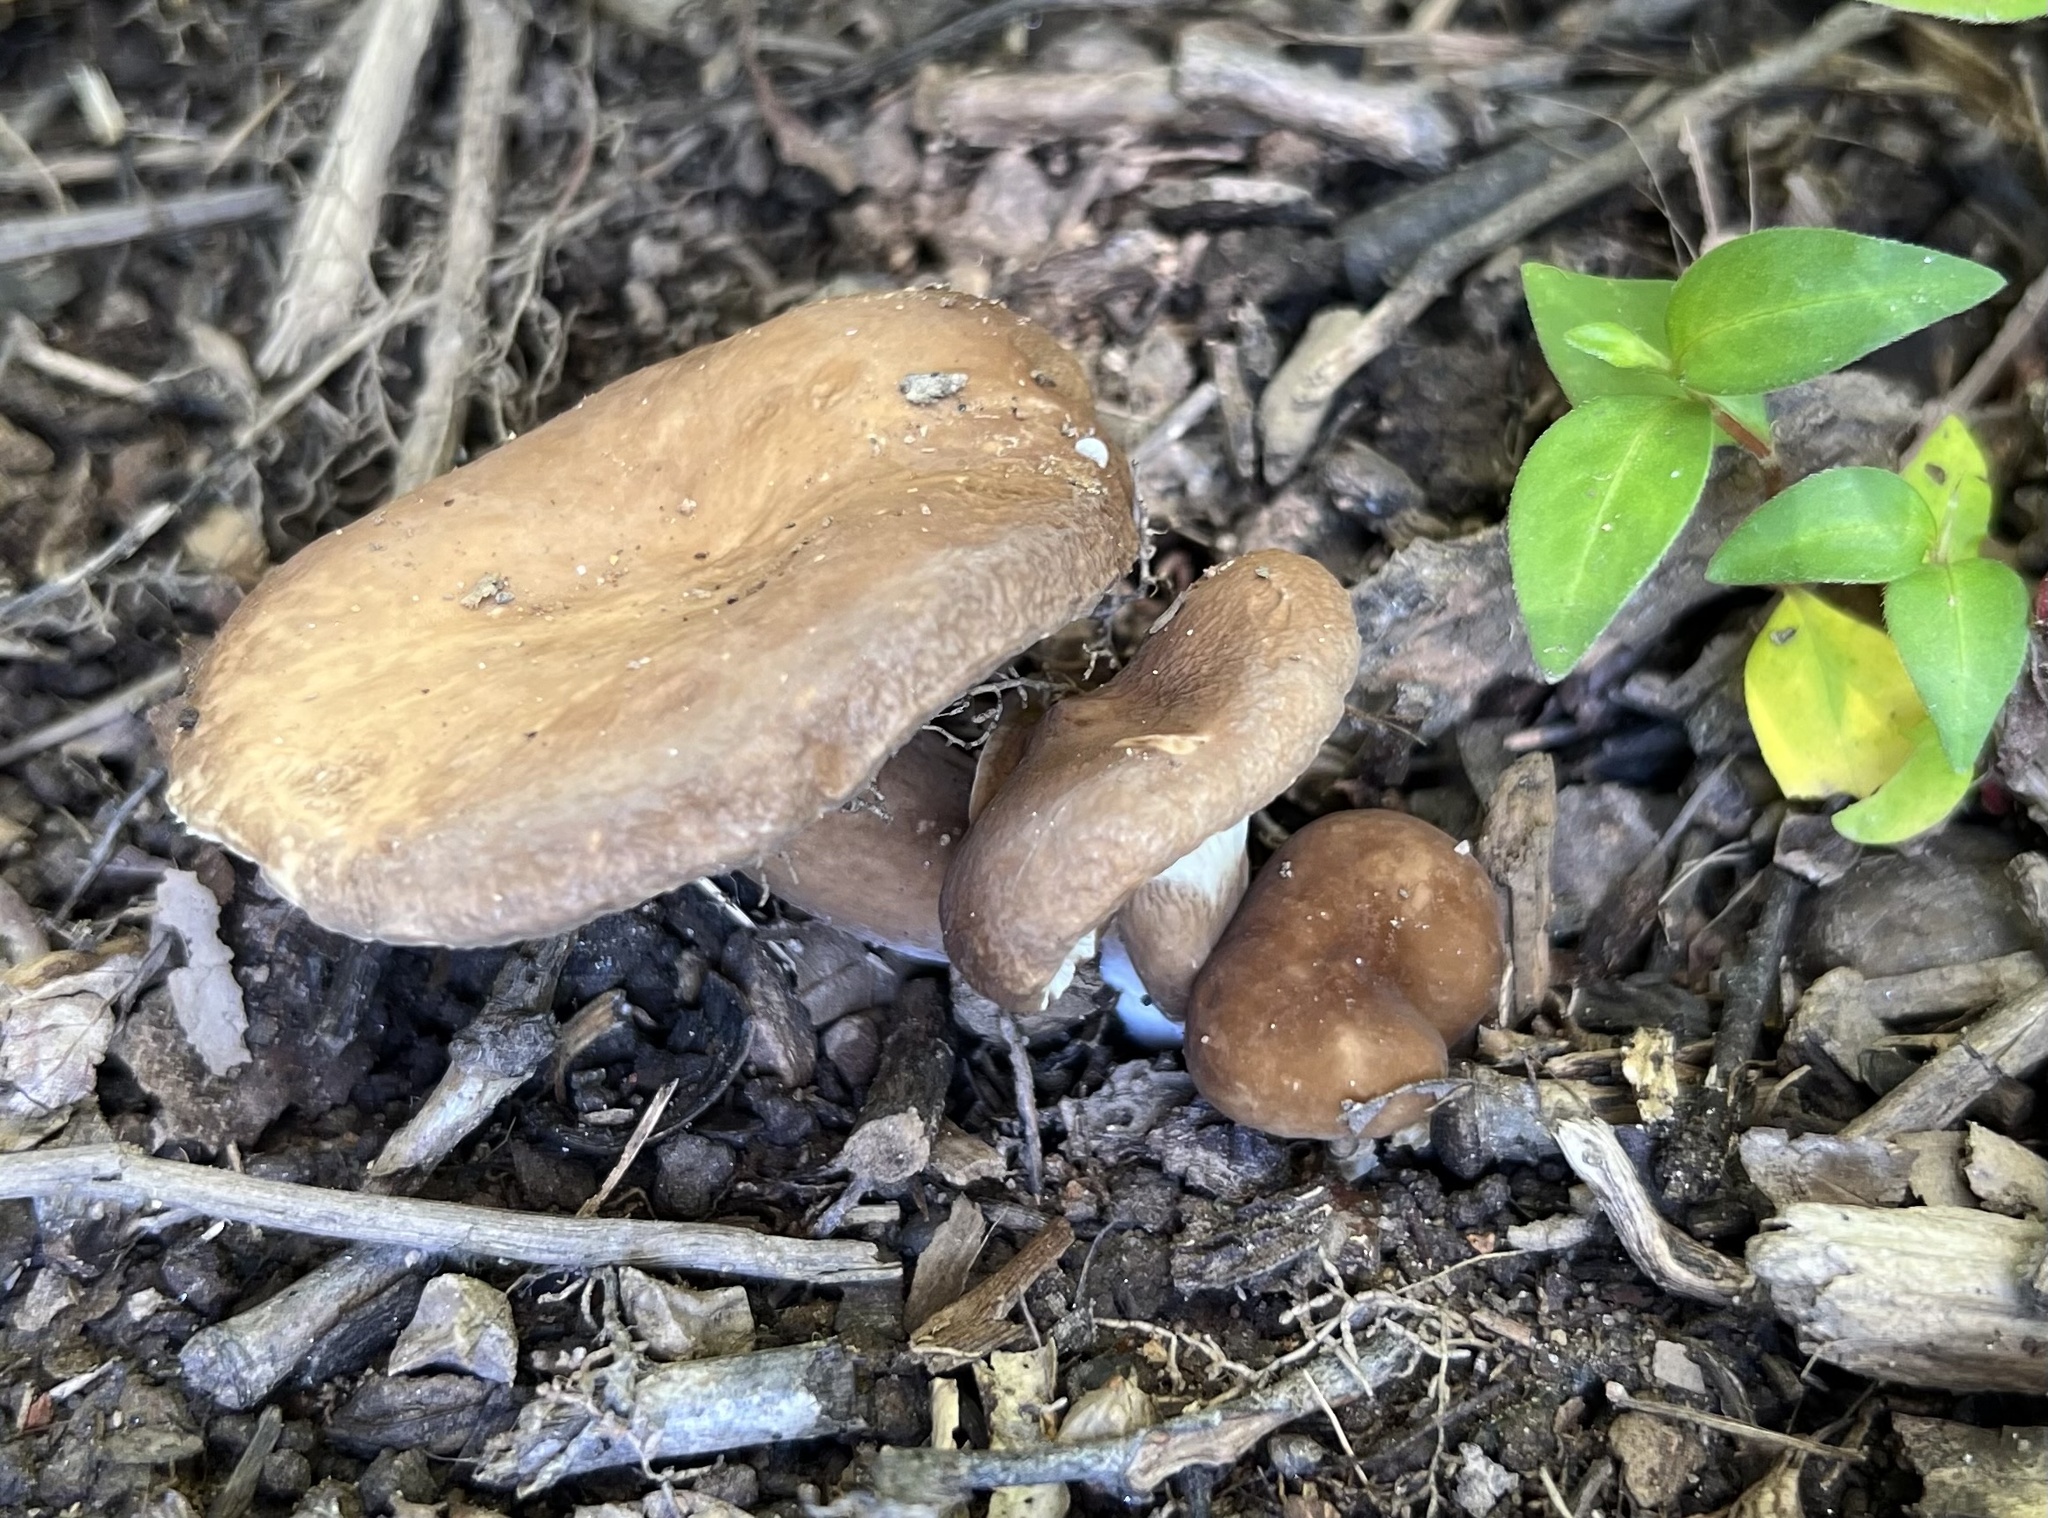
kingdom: Fungi
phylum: Basidiomycota
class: Agaricomycetes
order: Russulales
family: Russulaceae
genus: Lactarius
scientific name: Lactarius gerardii
